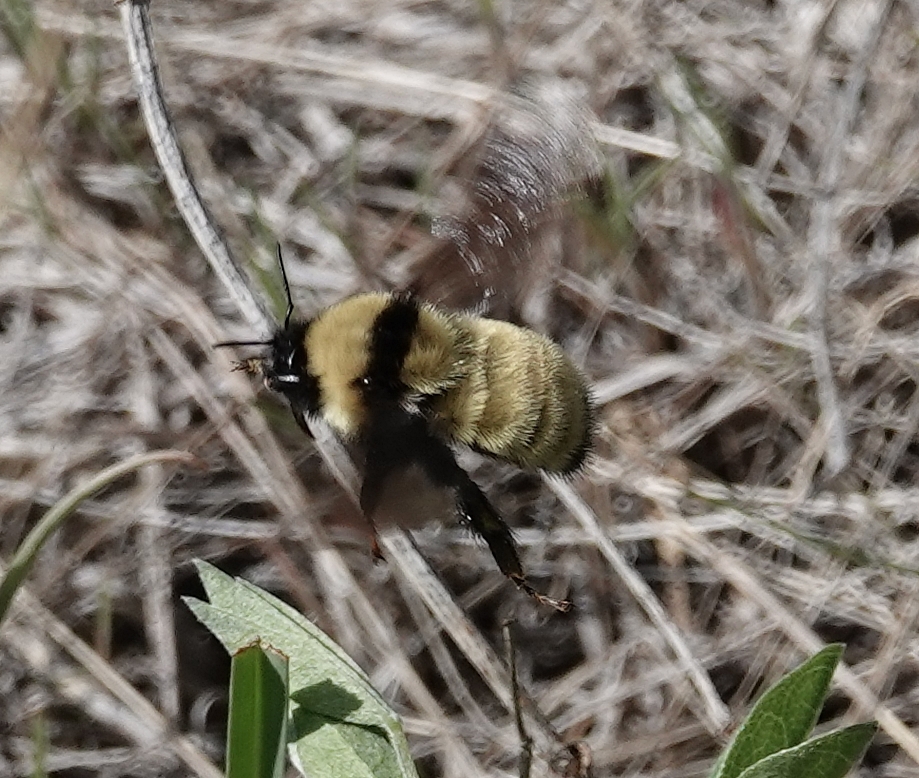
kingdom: Animalia
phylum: Arthropoda
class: Insecta
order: Hymenoptera
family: Apidae
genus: Bombus
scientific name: Bombus fervidus
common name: Yellow bumble bee
